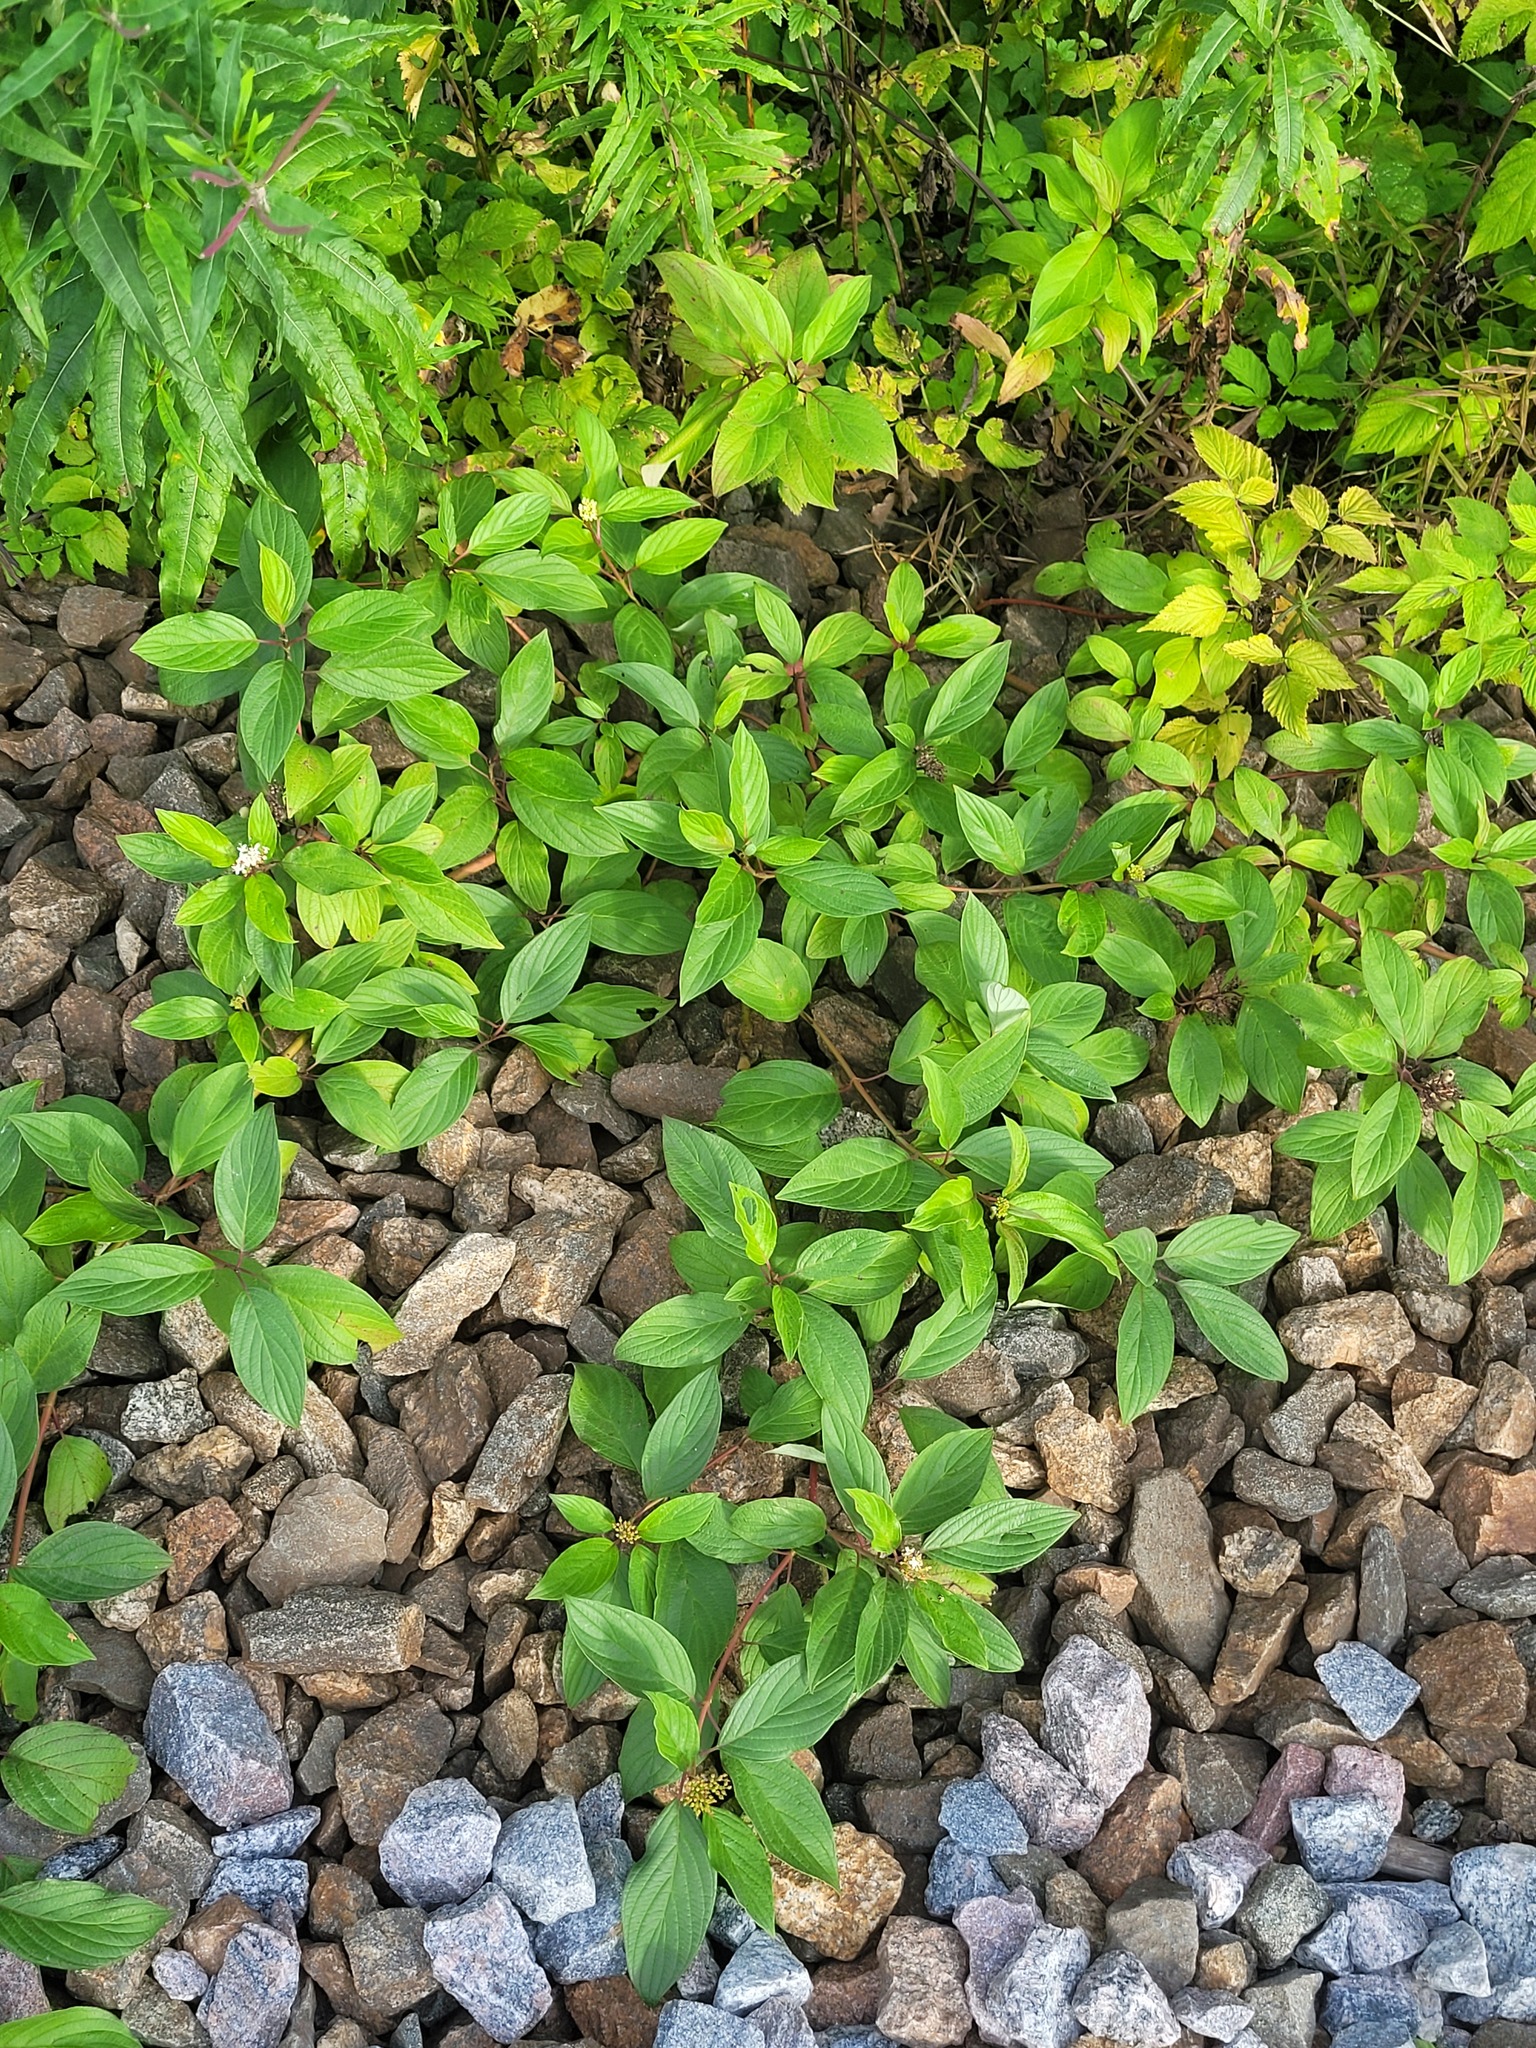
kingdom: Plantae
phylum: Tracheophyta
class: Magnoliopsida
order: Cornales
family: Cornaceae
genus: Cornus
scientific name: Cornus alba
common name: White dogwood
